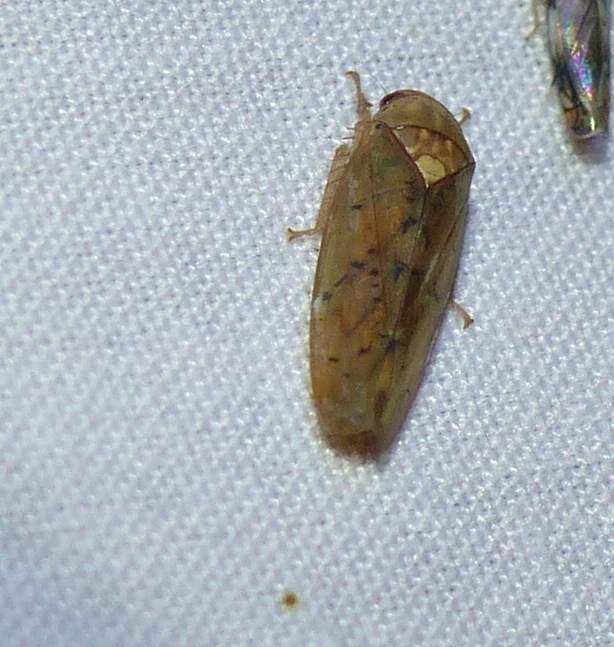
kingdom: Animalia
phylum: Arthropoda
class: Insecta
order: Hemiptera
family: Cicadellidae
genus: Ponana
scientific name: Ponana quadralaba
